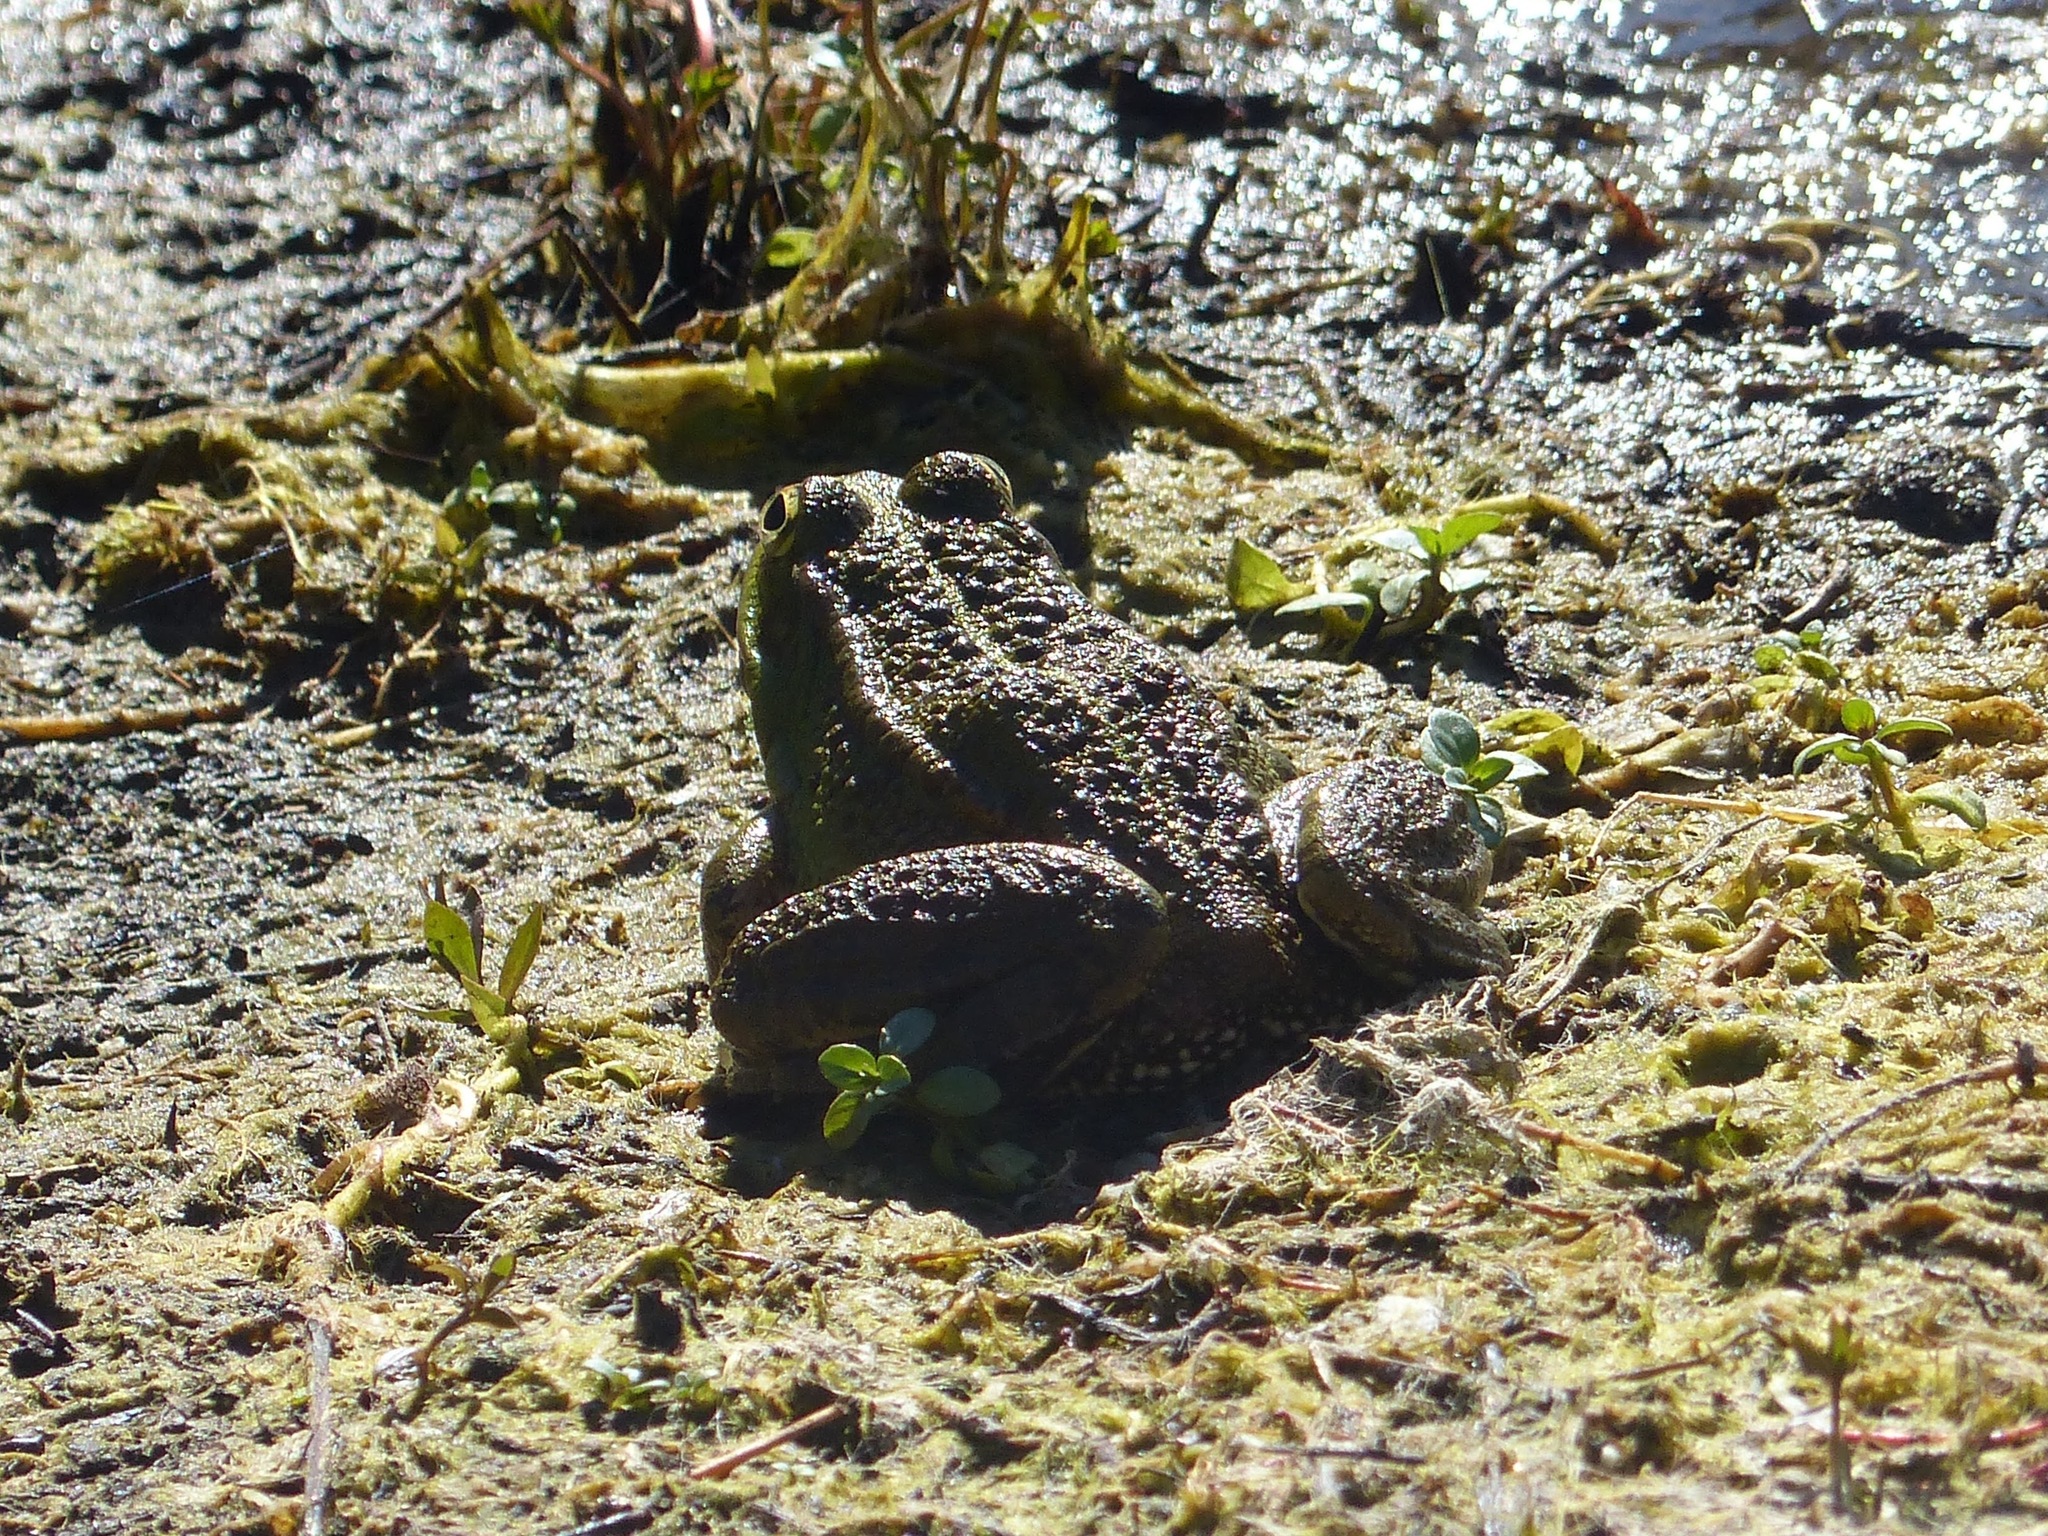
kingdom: Animalia
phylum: Chordata
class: Amphibia
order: Anura
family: Ranidae
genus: Pelophylax
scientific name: Pelophylax perezi
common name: Perez's frog
